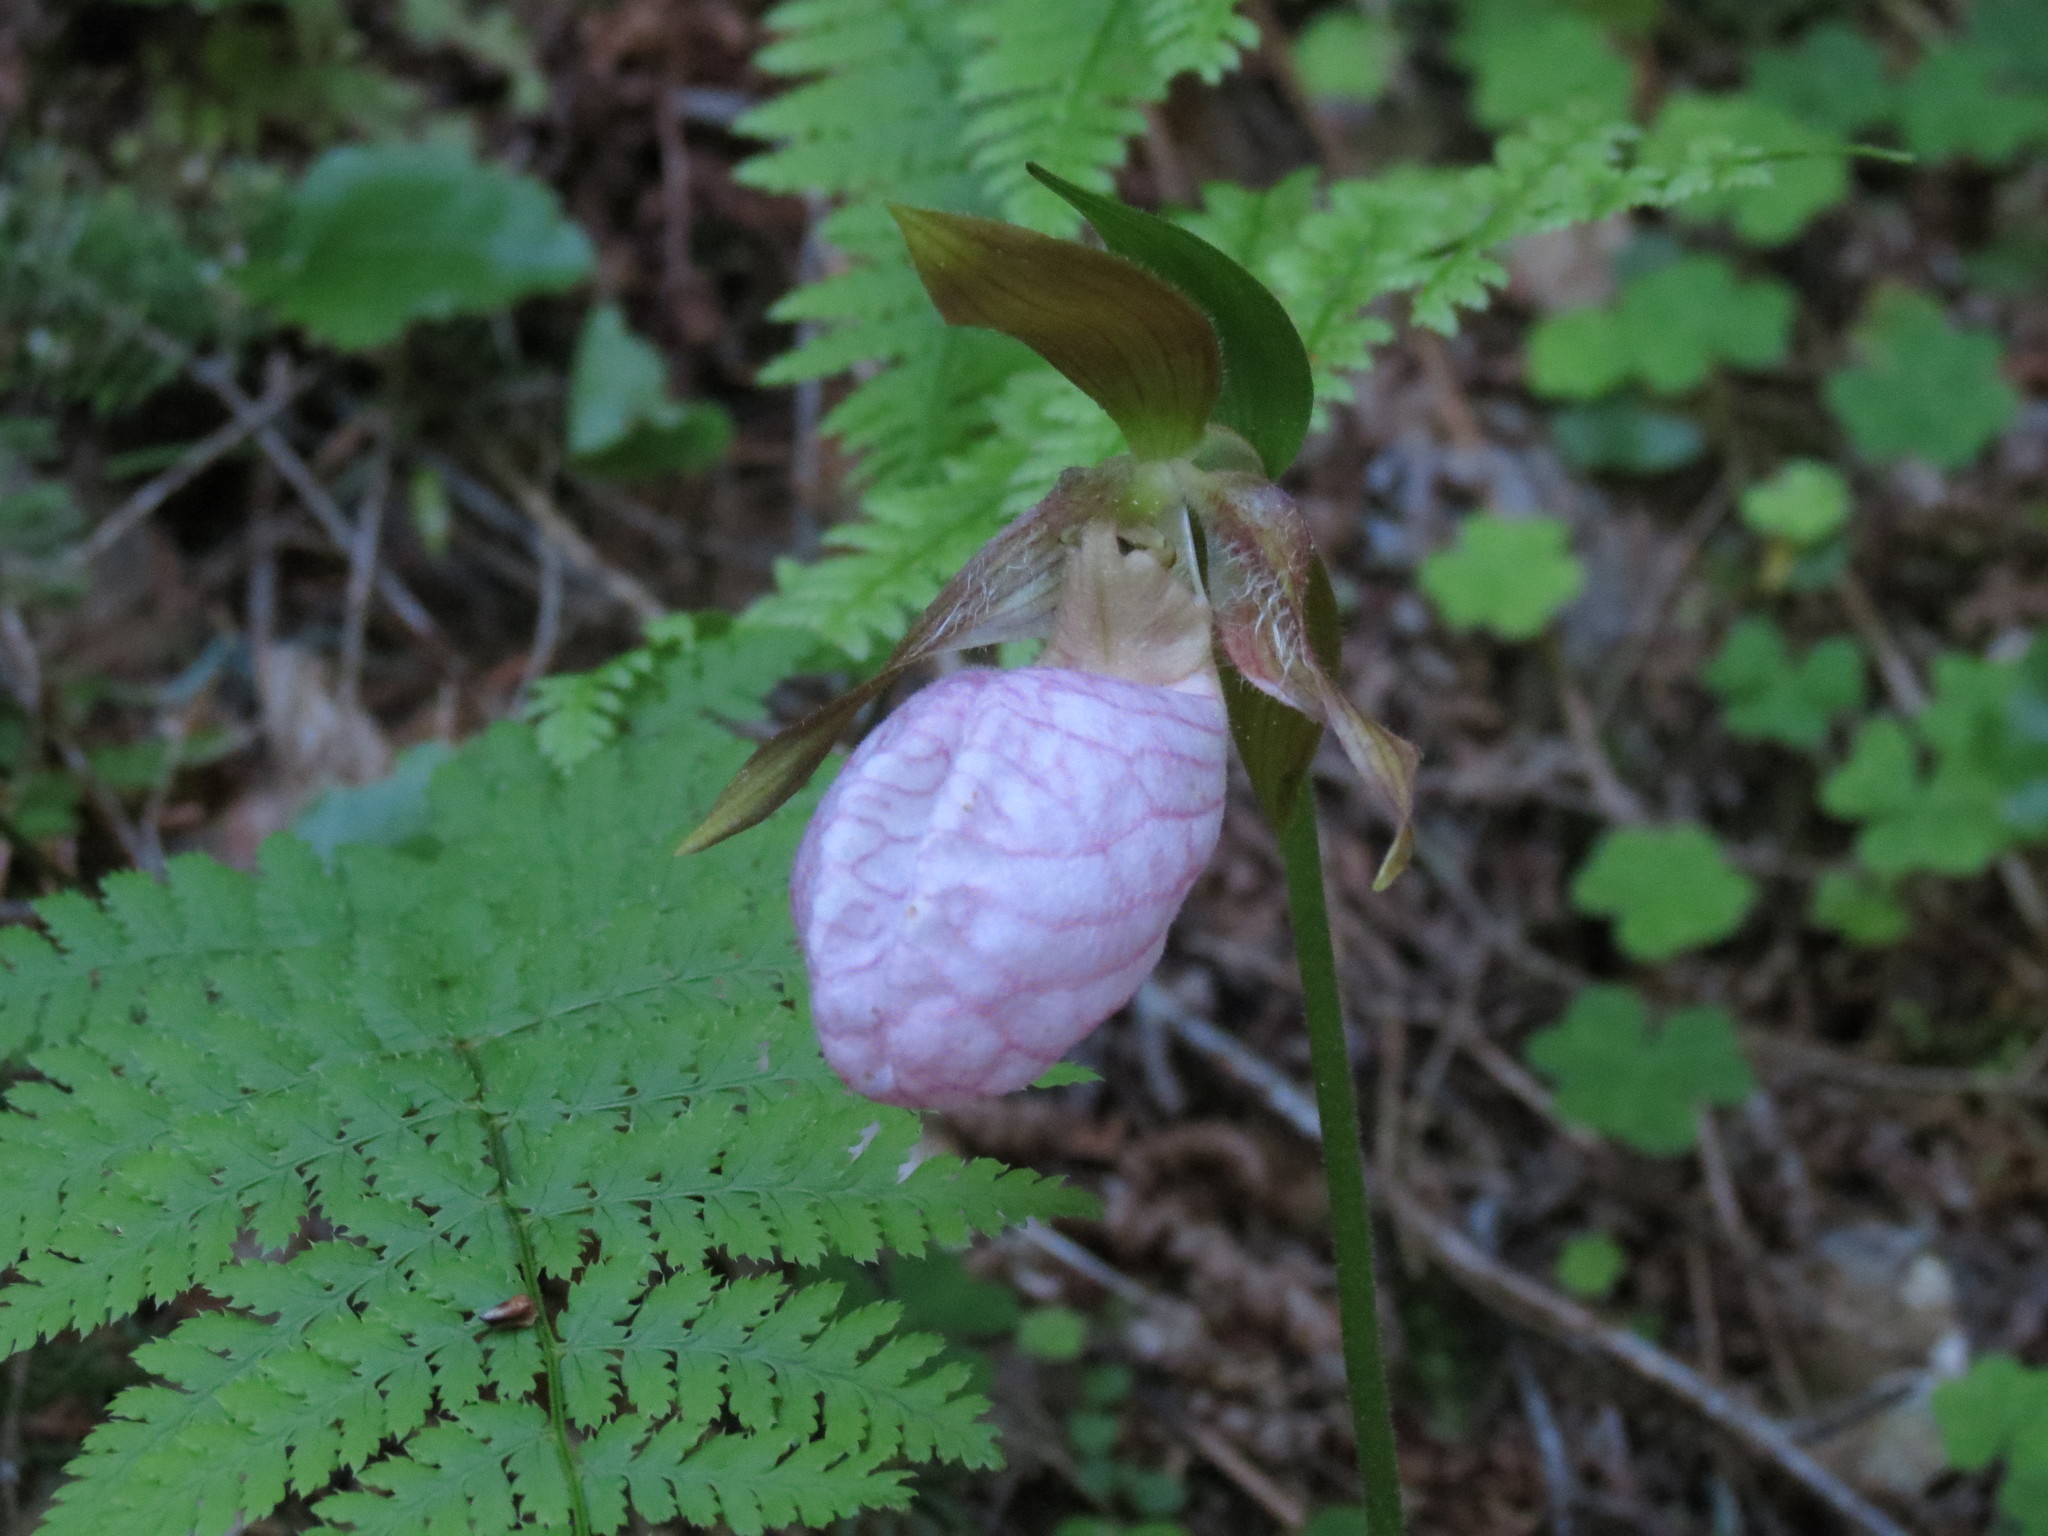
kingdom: Plantae
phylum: Tracheophyta
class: Liliopsida
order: Asparagales
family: Orchidaceae
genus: Cypripedium
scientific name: Cypripedium acaule
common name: Pink lady's-slipper
